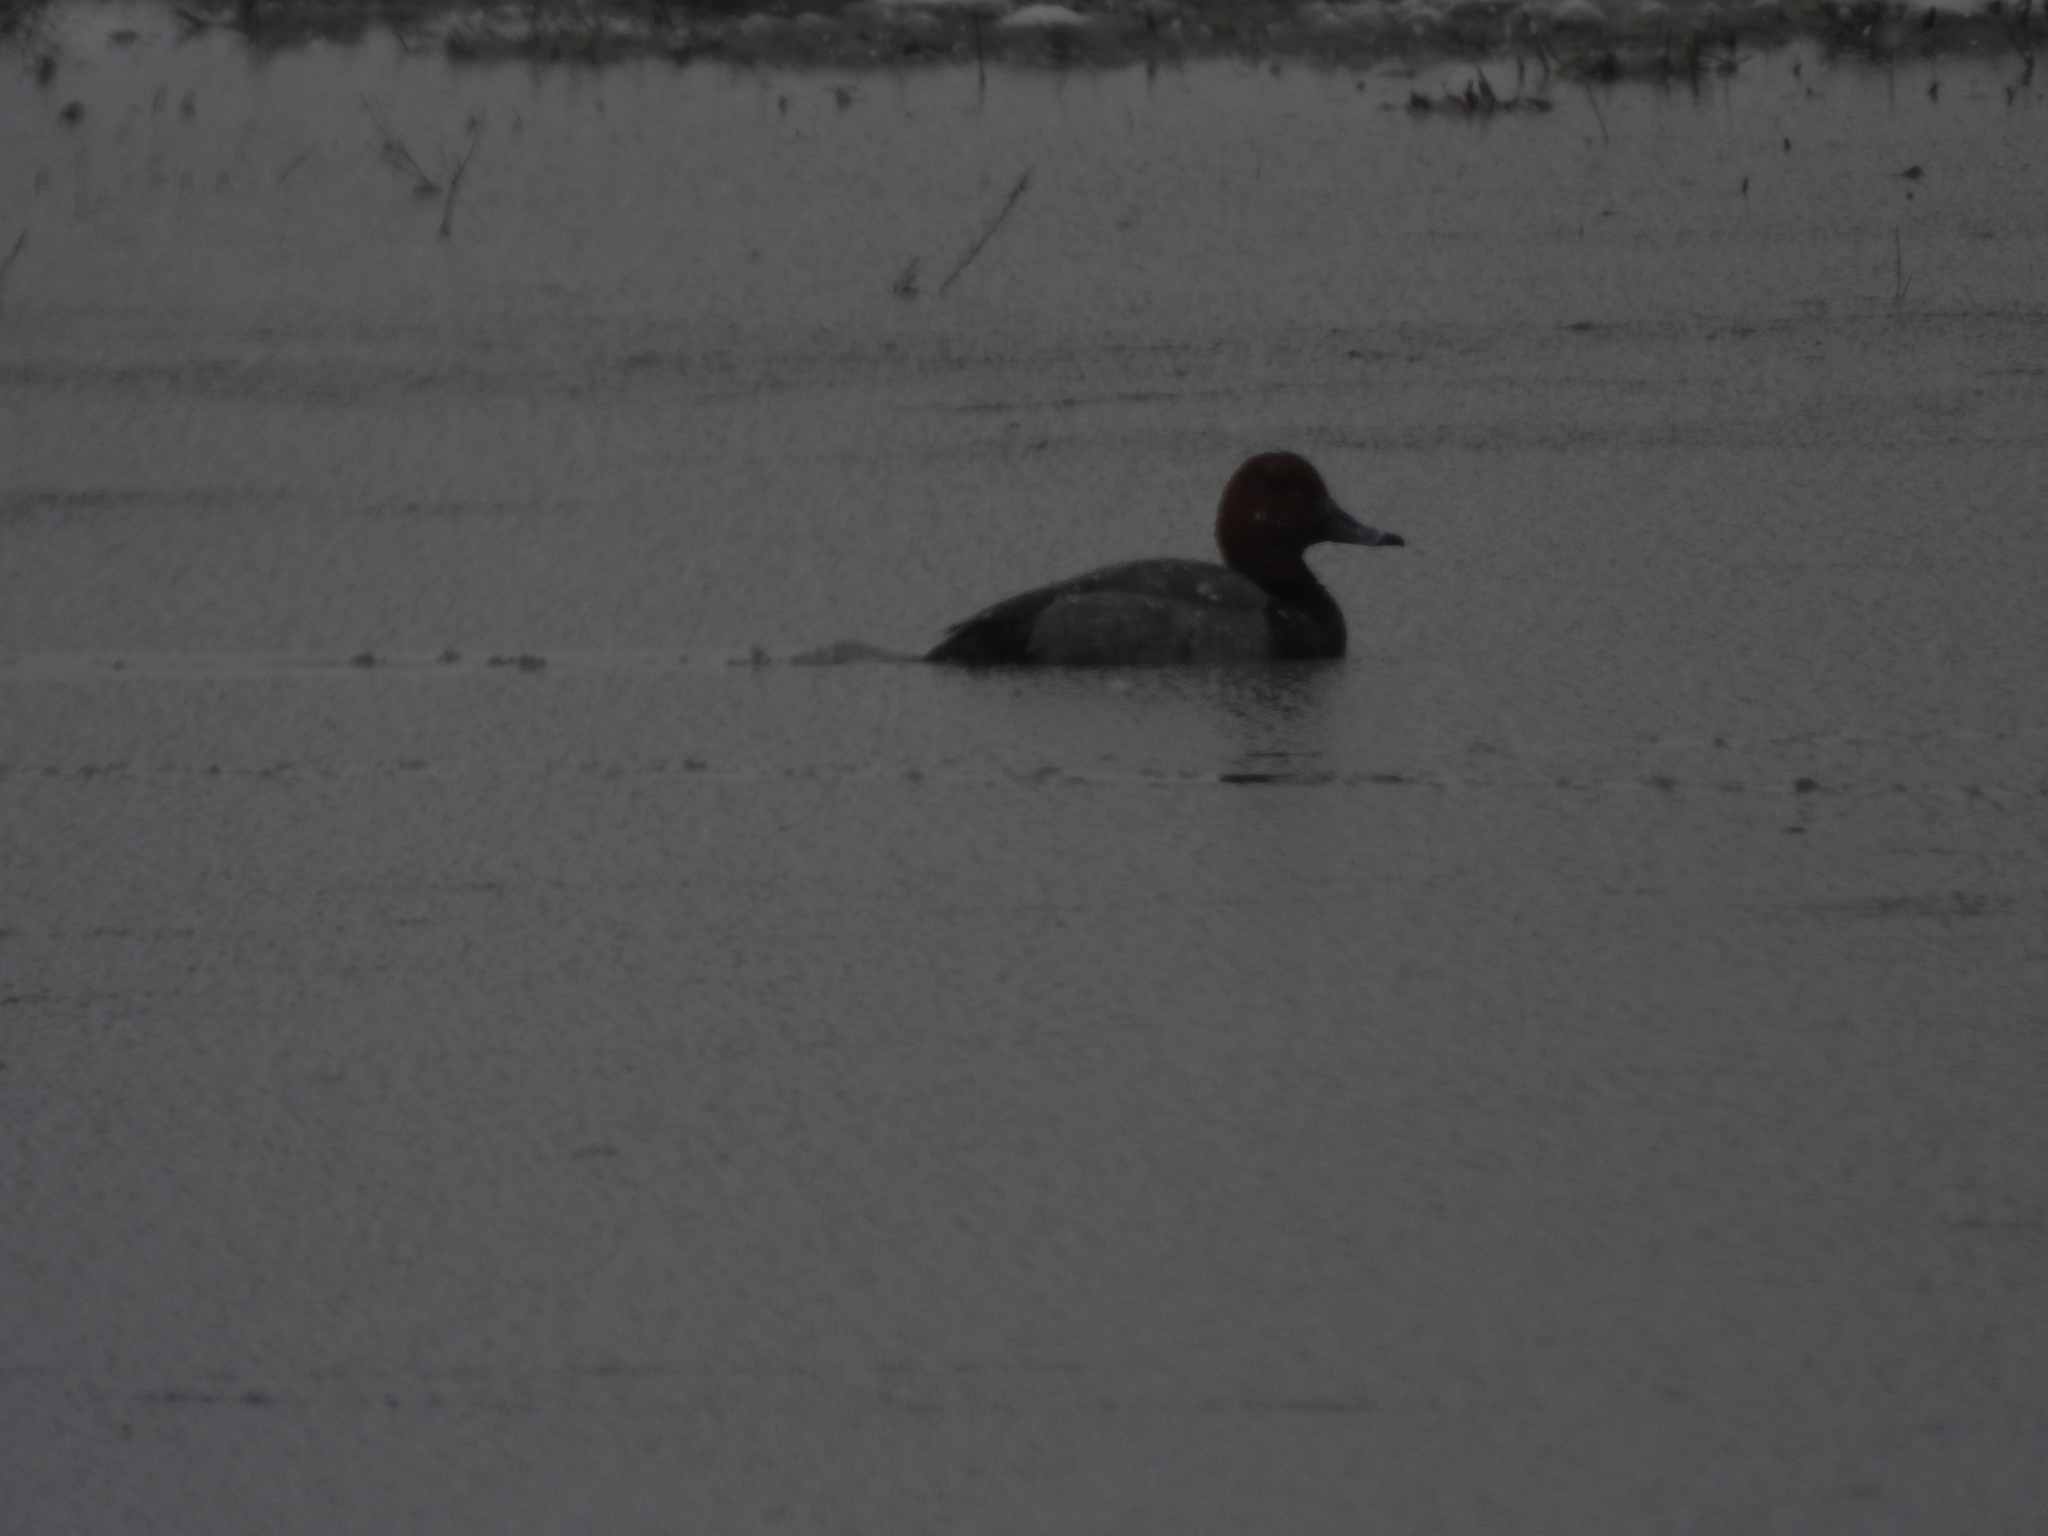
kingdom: Animalia
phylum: Chordata
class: Aves
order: Anseriformes
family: Anatidae
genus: Aythya
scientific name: Aythya americana
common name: Redhead
